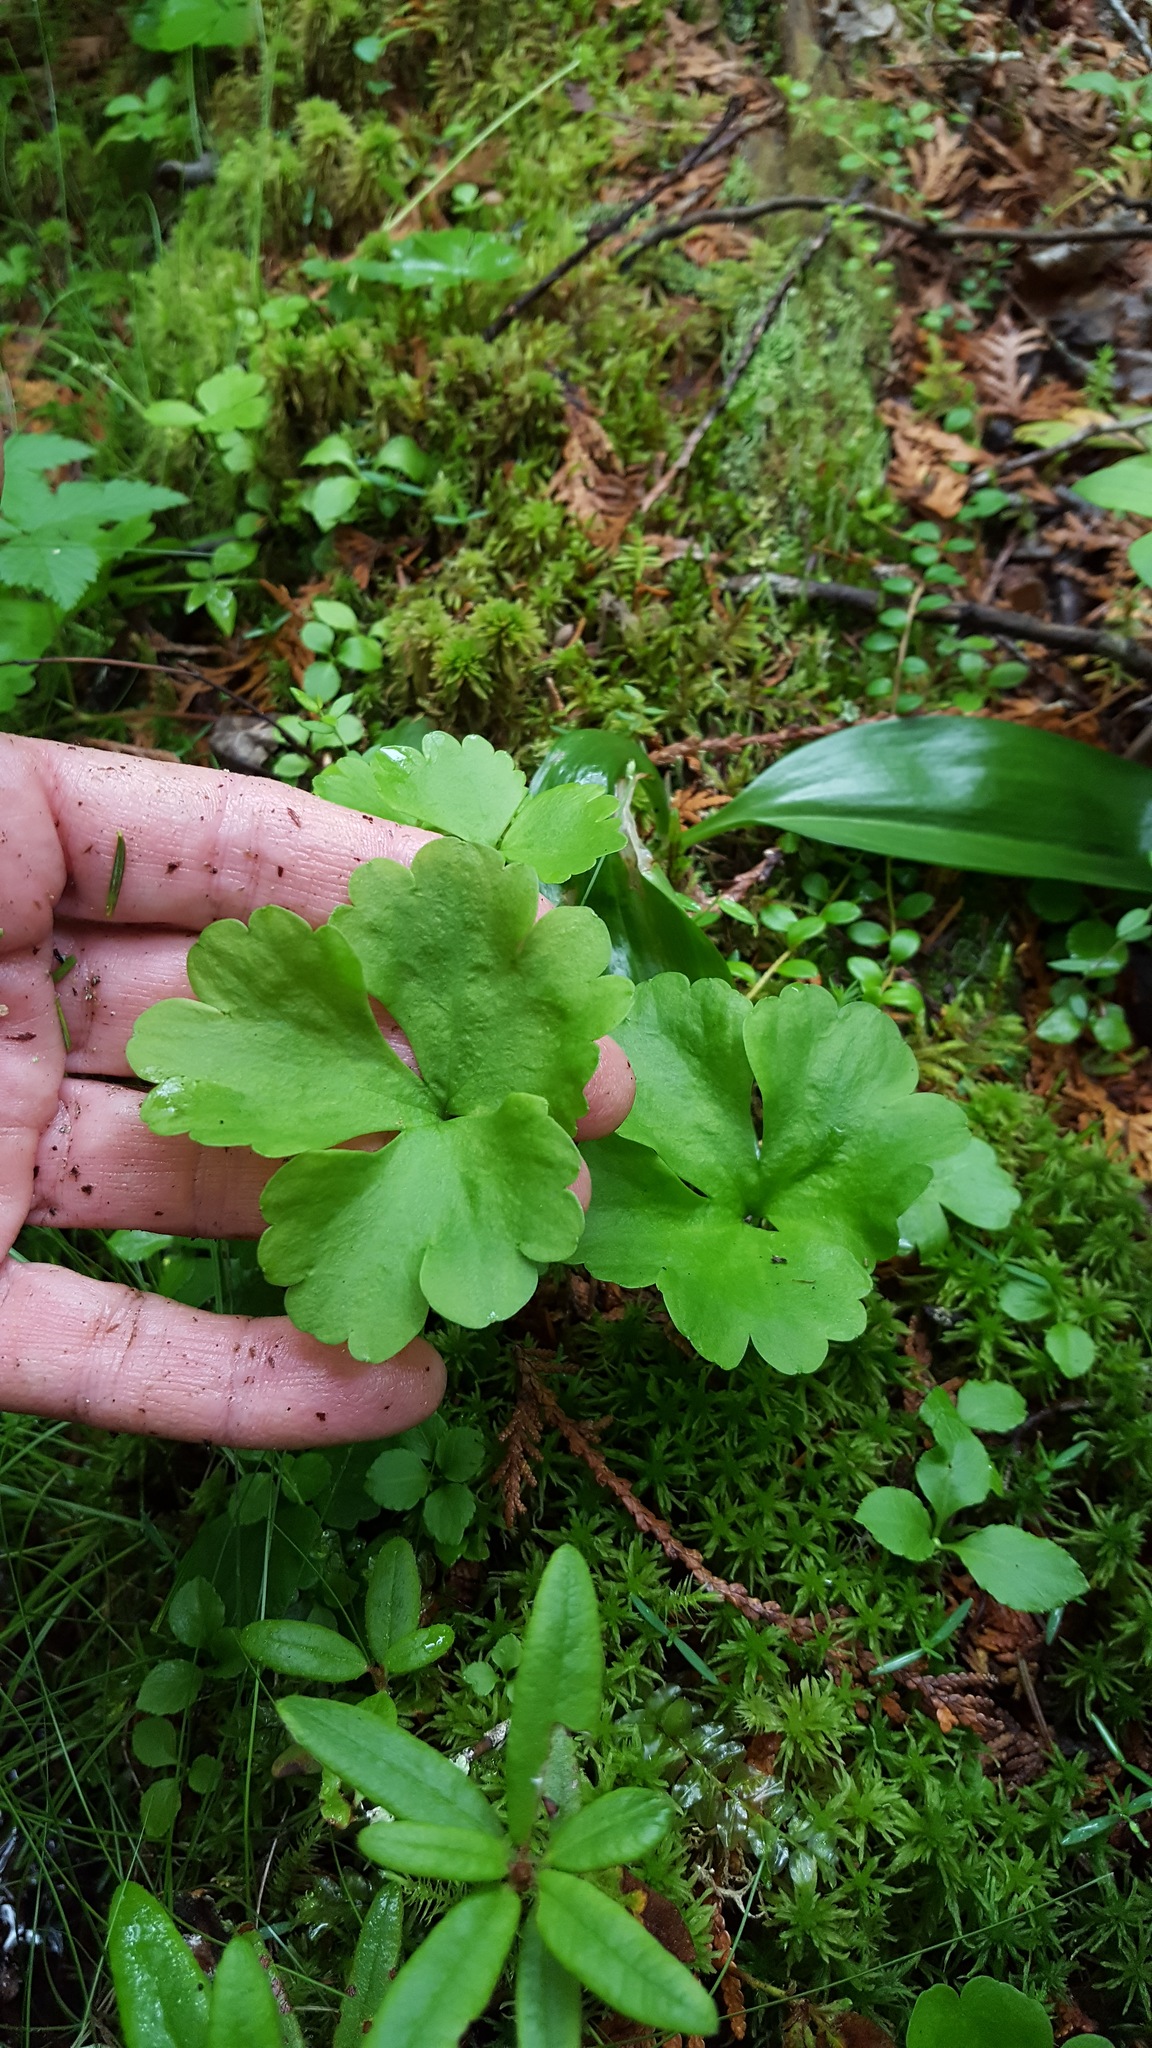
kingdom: Plantae
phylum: Tracheophyta
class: Magnoliopsida
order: Ranunculales
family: Ranunculaceae
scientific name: Ranunculaceae
